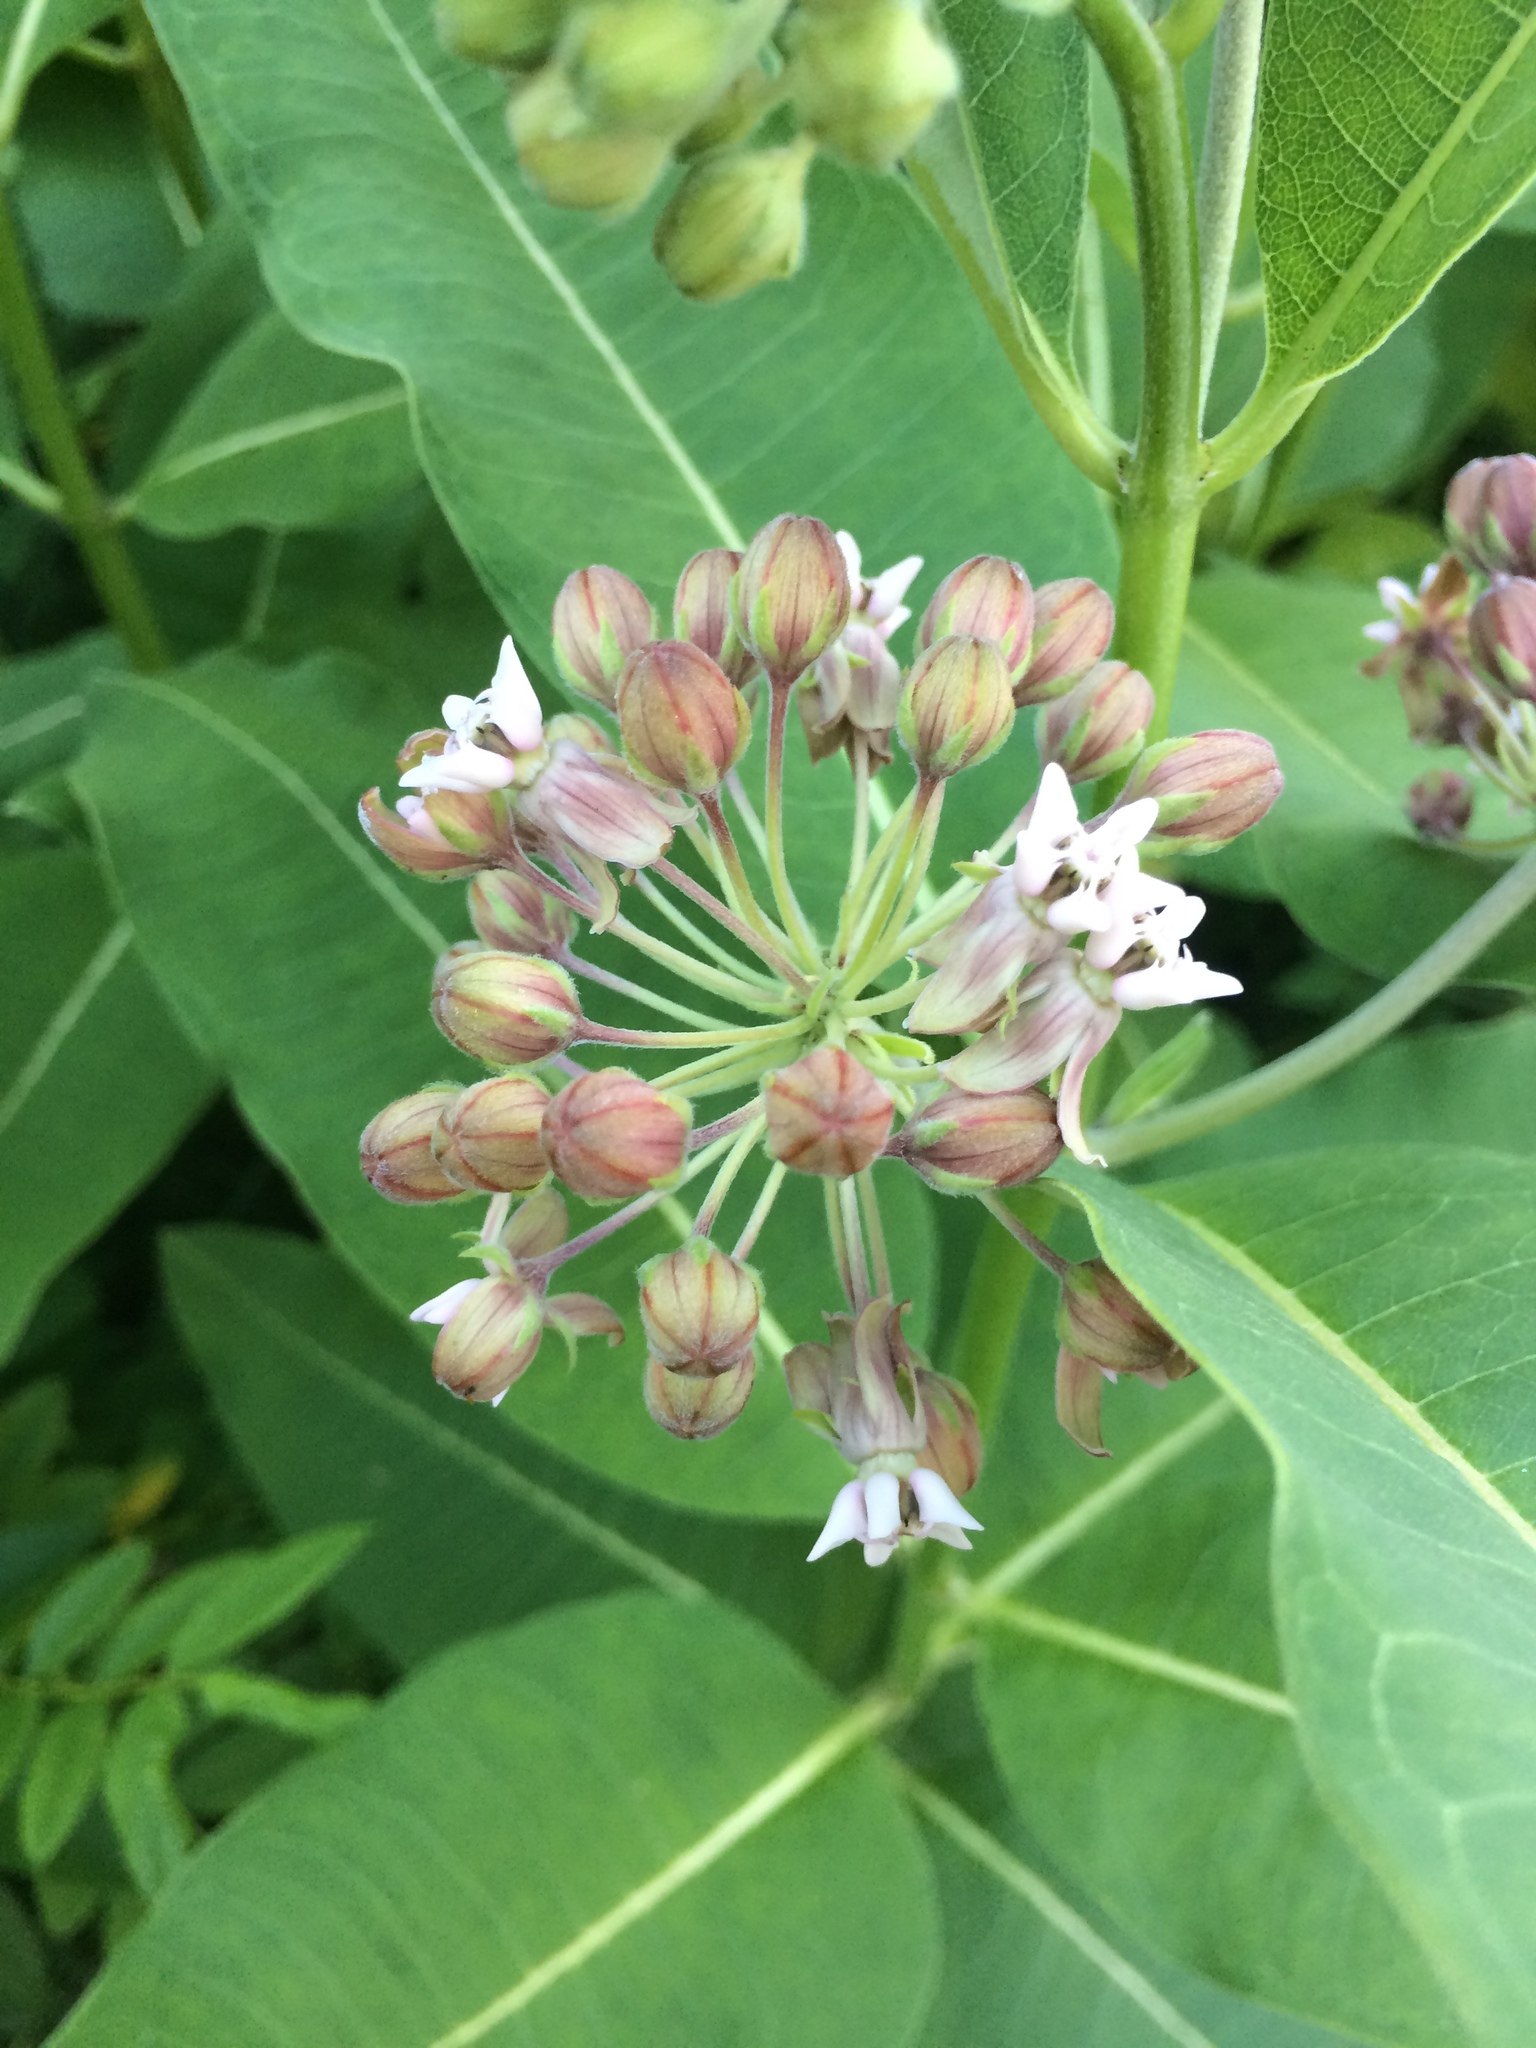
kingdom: Plantae
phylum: Tracheophyta
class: Magnoliopsida
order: Gentianales
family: Apocynaceae
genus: Asclepias
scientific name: Asclepias syriaca
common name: Common milkweed
